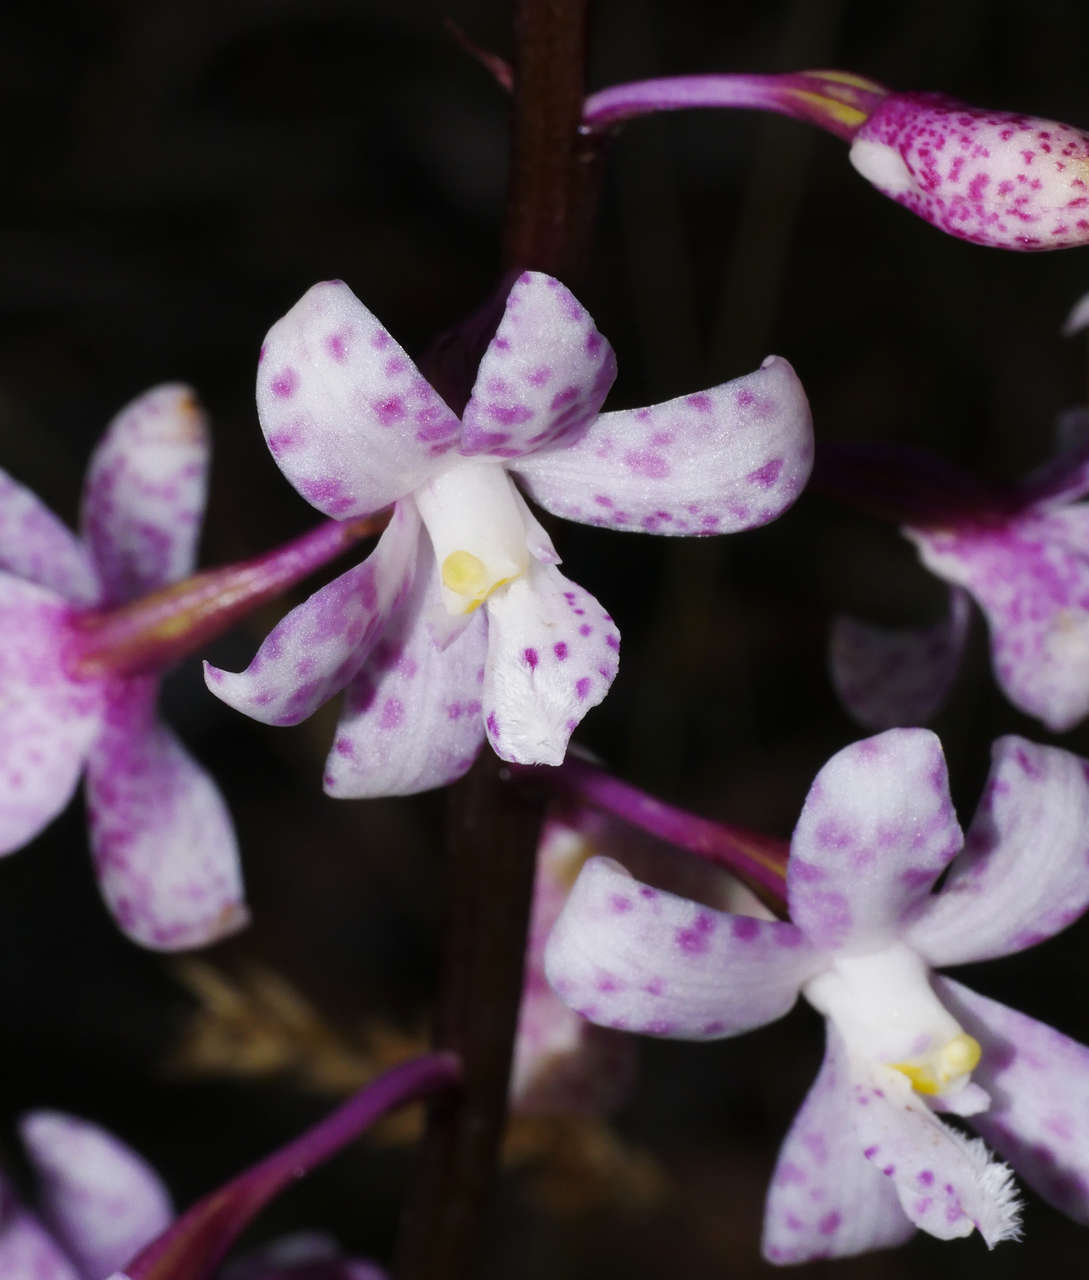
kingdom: Plantae
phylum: Tracheophyta
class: Liliopsida
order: Asparagales
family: Orchidaceae
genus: Dipodium
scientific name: Dipodium pardalinum
